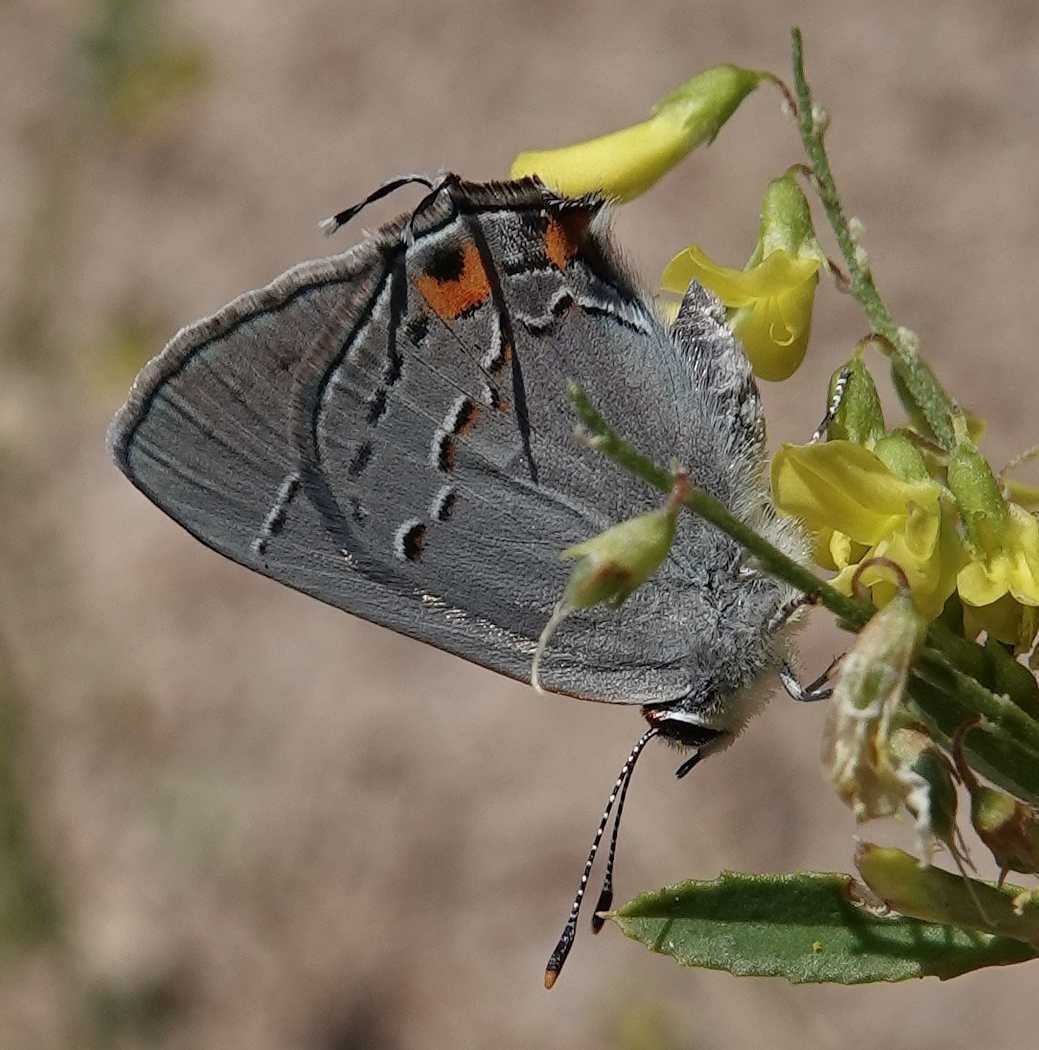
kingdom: Animalia
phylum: Arthropoda
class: Insecta
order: Lepidoptera
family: Lycaenidae
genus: Strymon
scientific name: Strymon melinus
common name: Gray hairstreak
